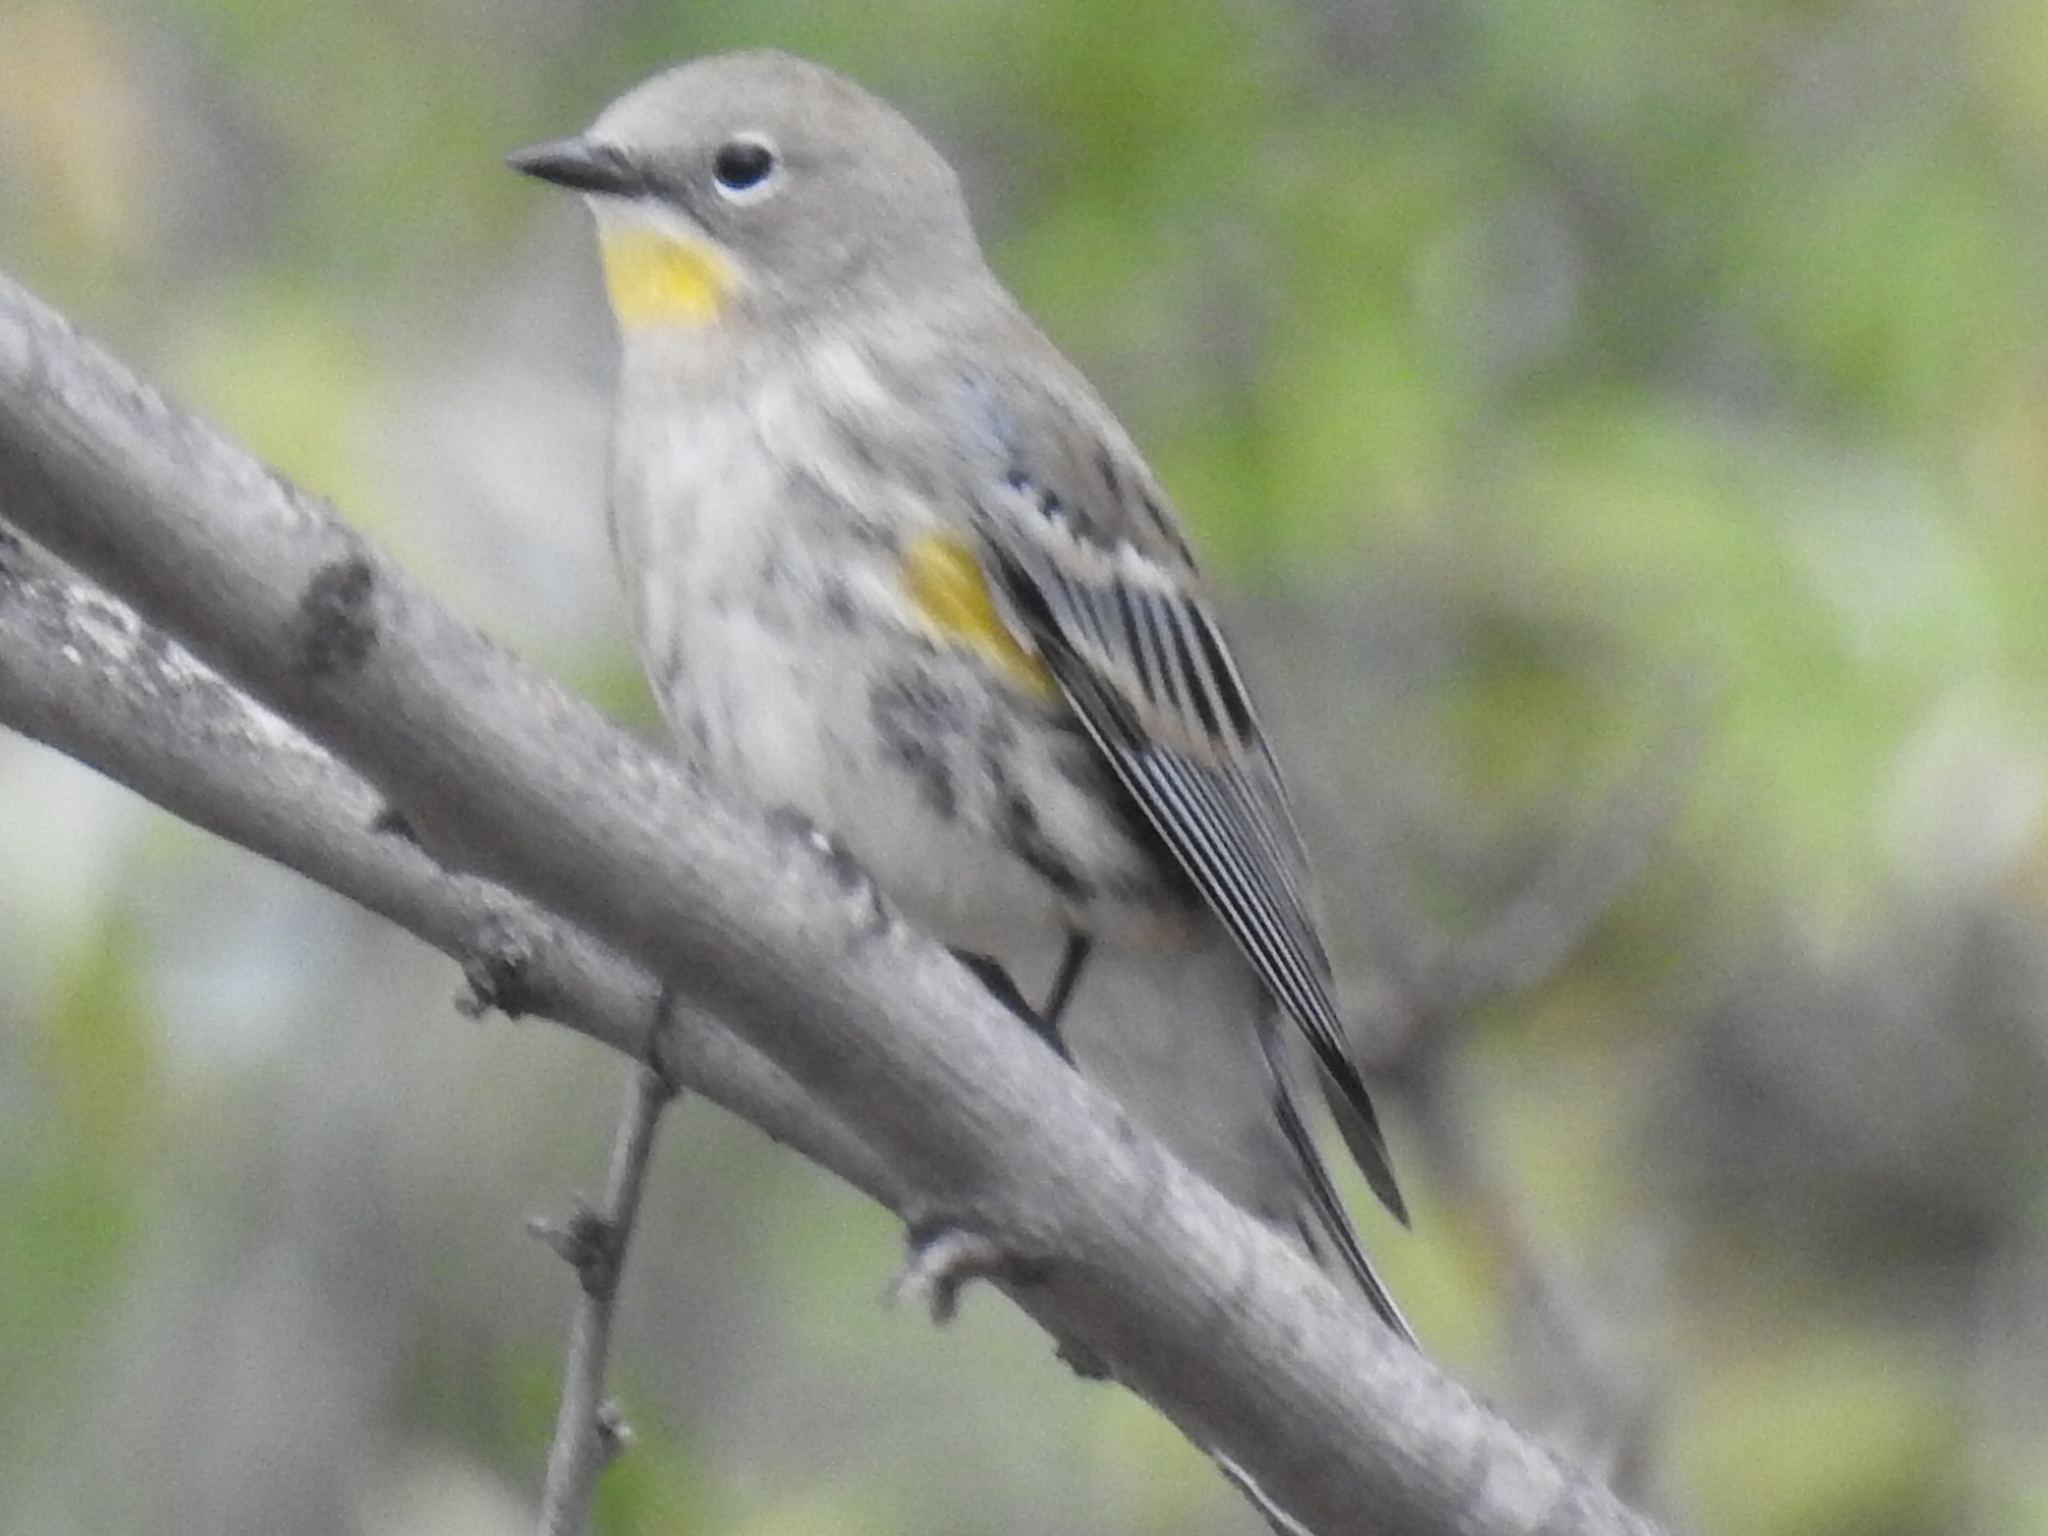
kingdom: Animalia
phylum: Chordata
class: Aves
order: Passeriformes
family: Parulidae
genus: Setophaga
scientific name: Setophaga auduboni
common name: Audubon's warbler
